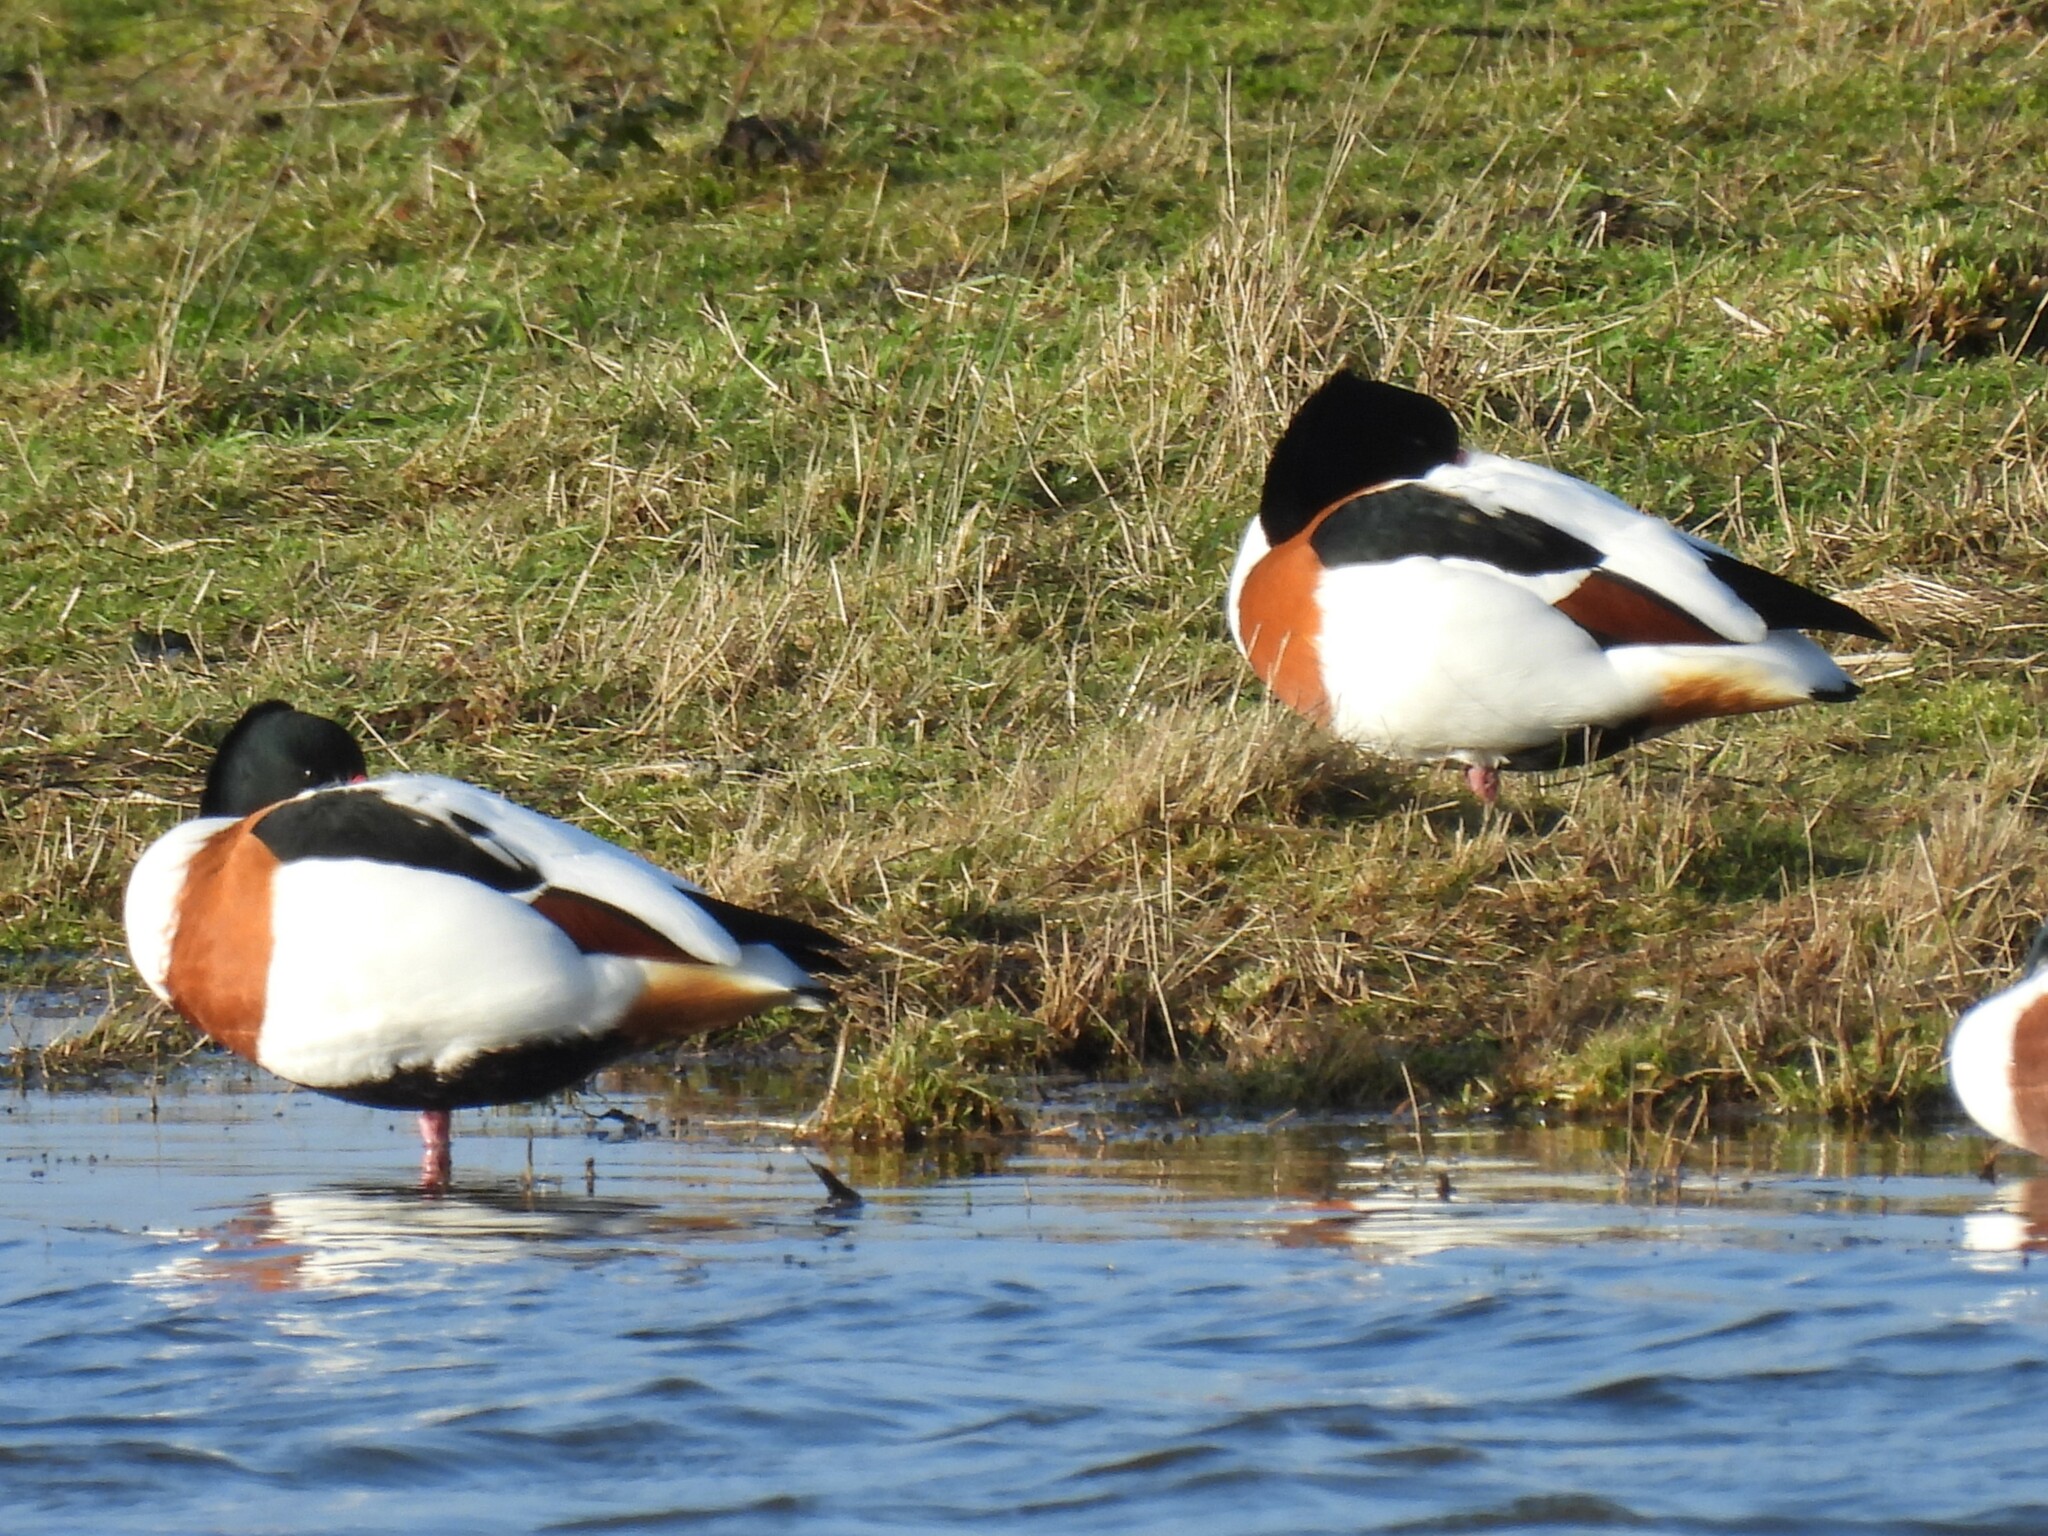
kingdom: Animalia
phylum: Chordata
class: Aves
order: Anseriformes
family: Anatidae
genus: Tadorna
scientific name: Tadorna tadorna
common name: Common shelduck
